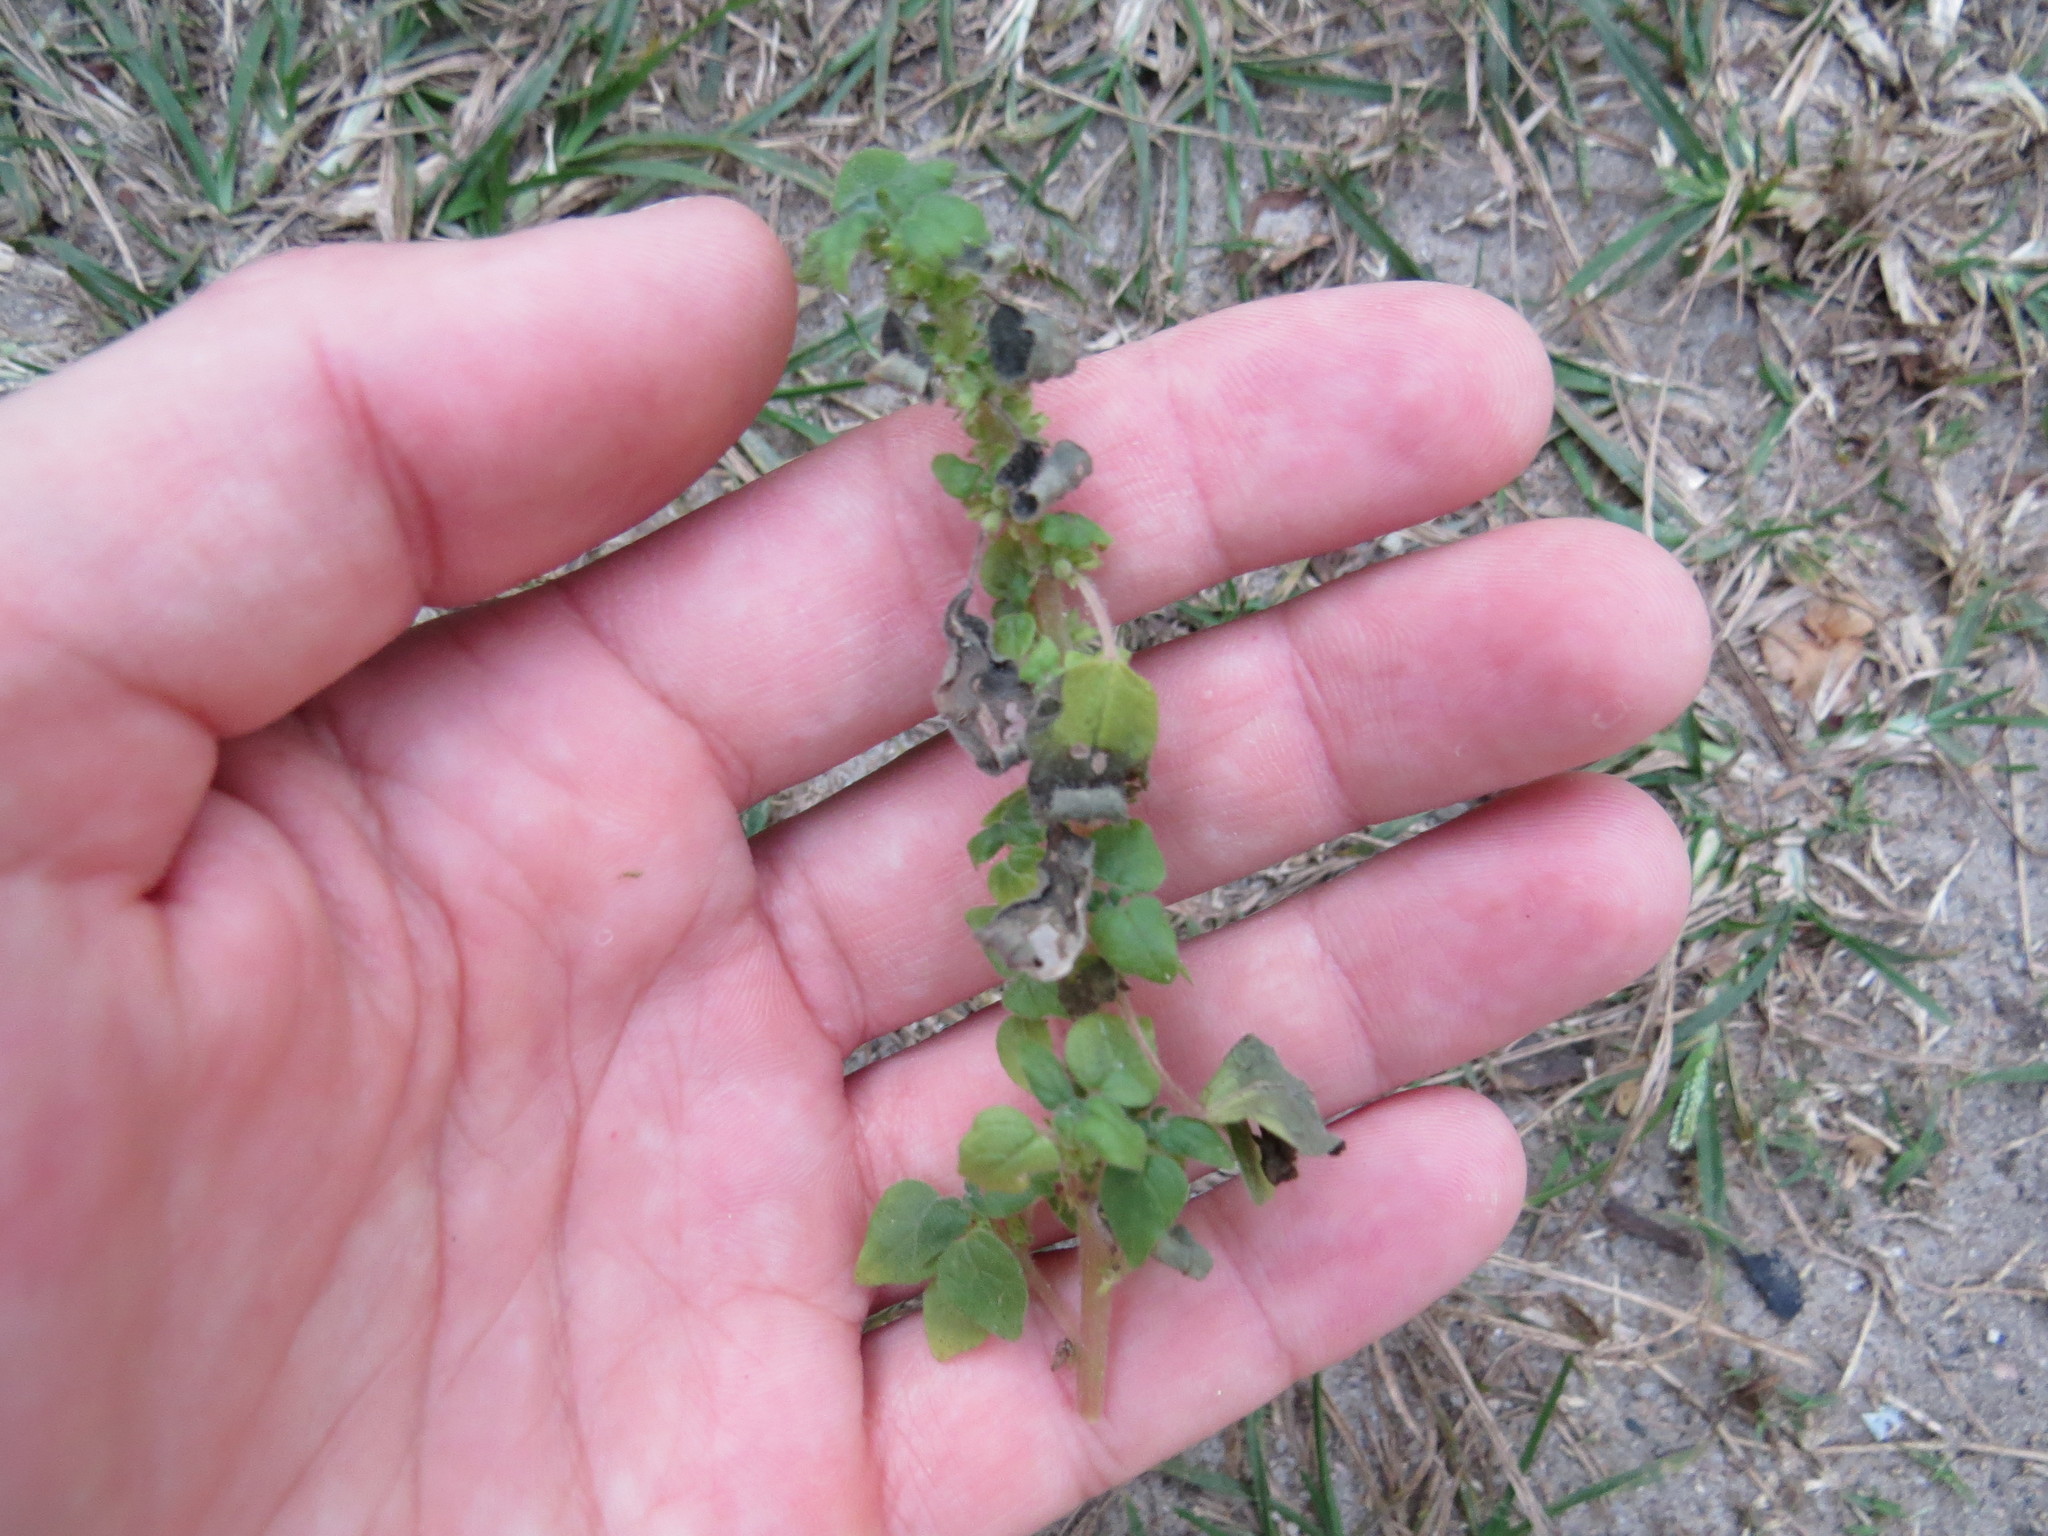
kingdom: Plantae
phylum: Tracheophyta
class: Magnoliopsida
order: Rosales
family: Urticaceae
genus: Parietaria
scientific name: Parietaria debilis
